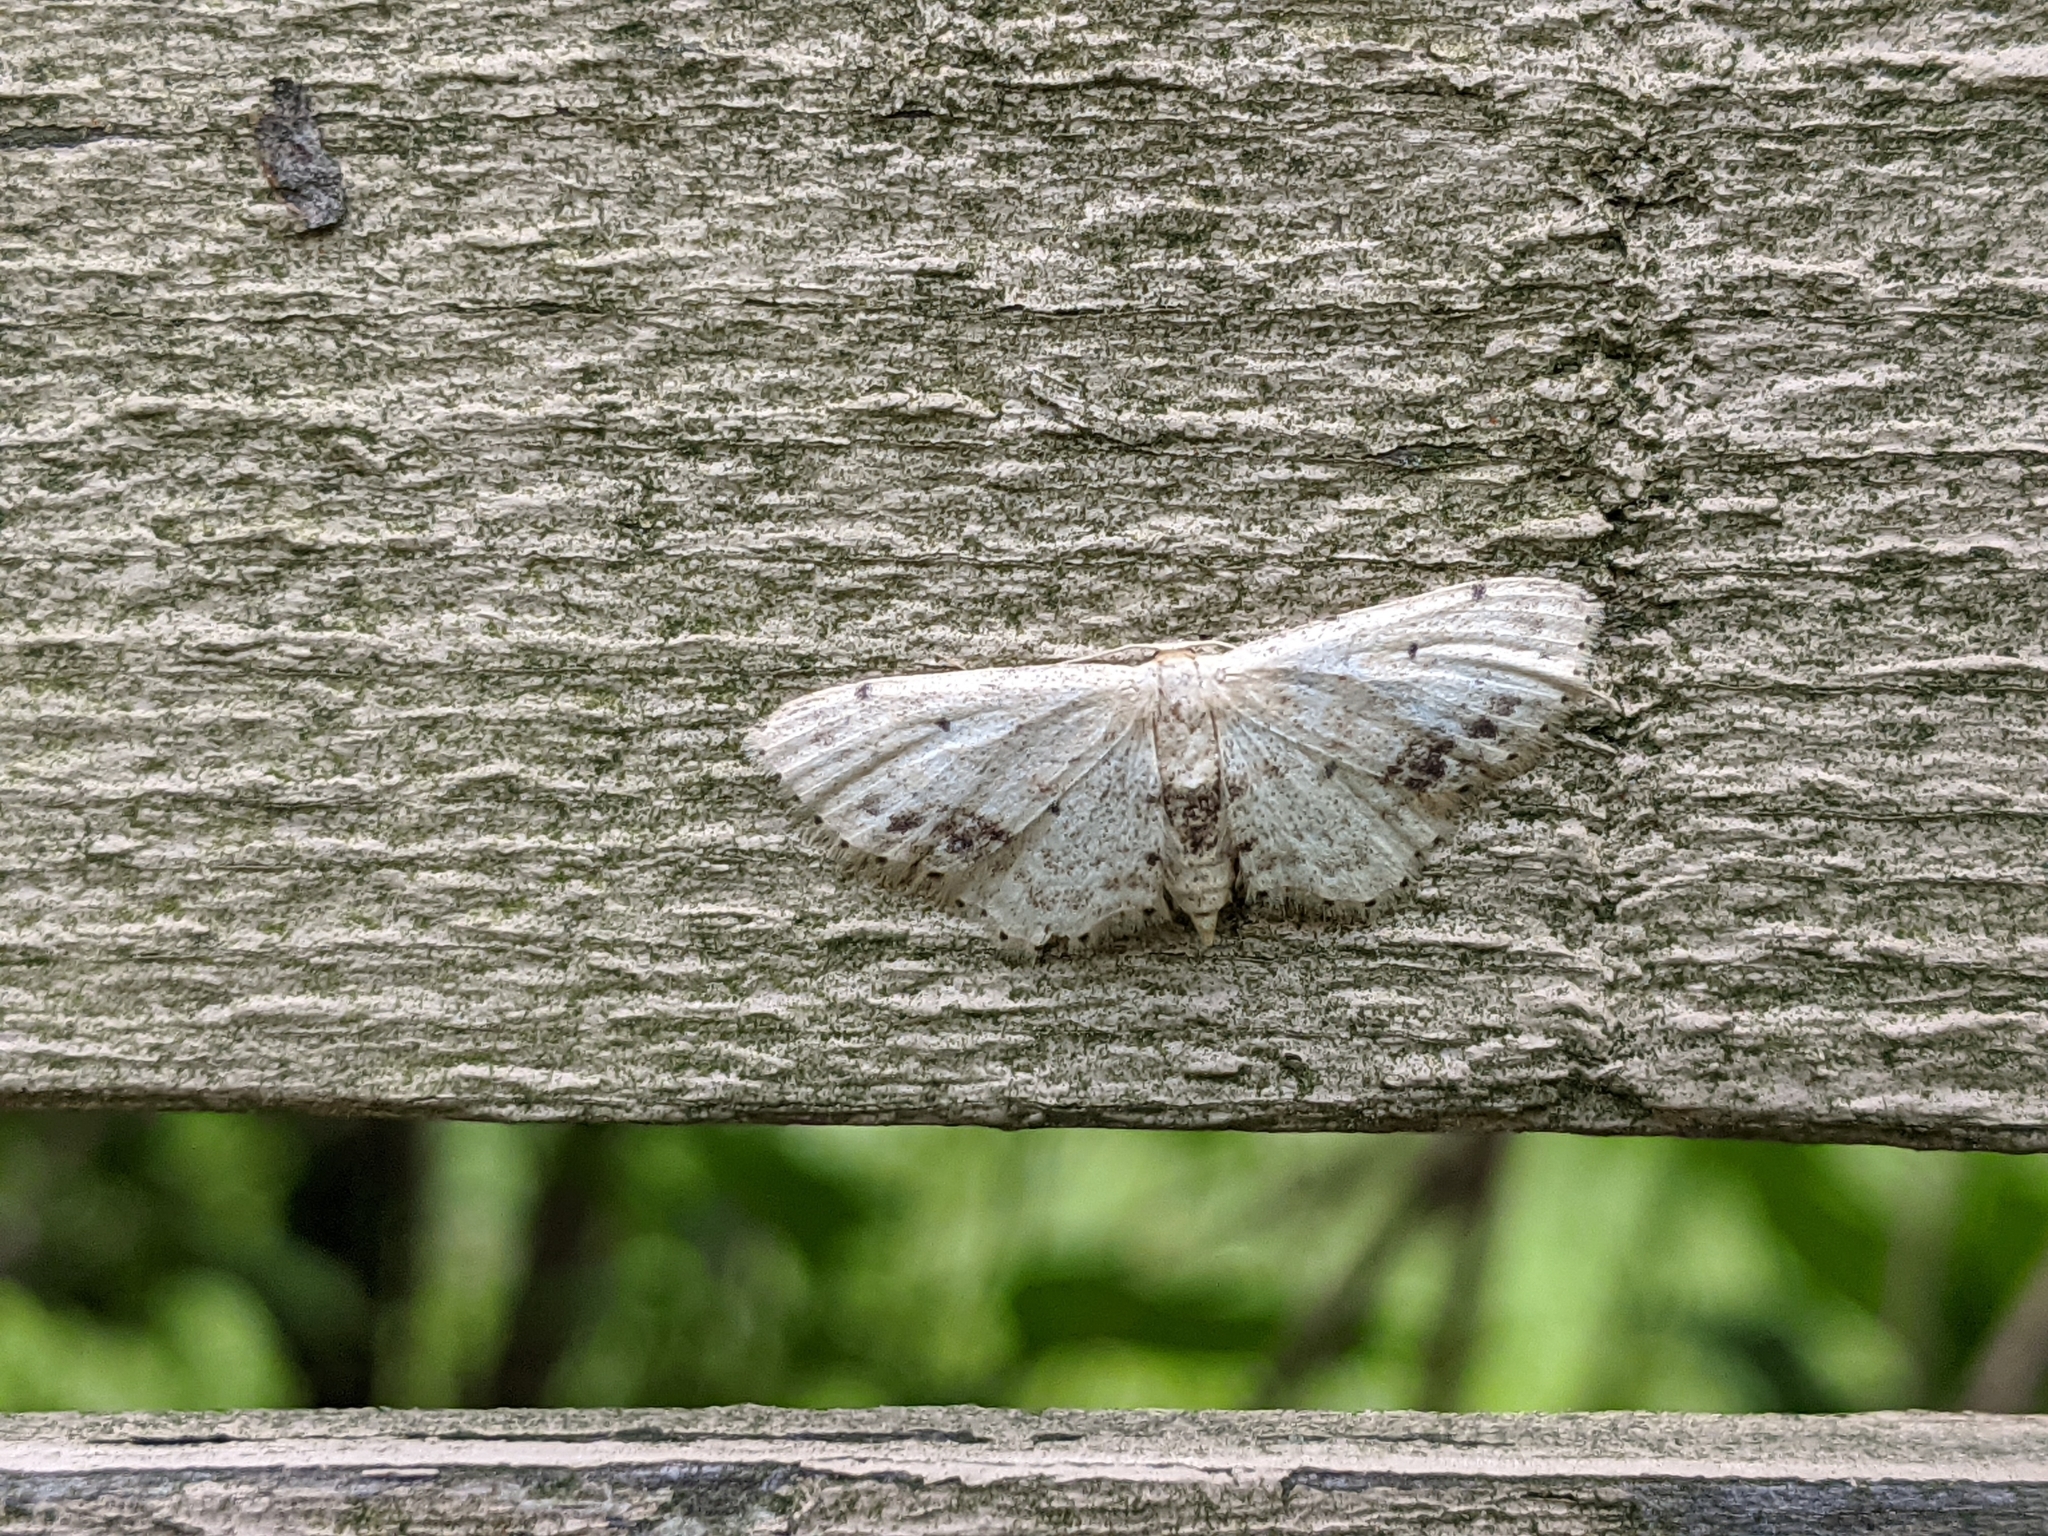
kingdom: Animalia
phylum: Arthropoda
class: Insecta
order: Lepidoptera
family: Geometridae
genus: Idaea
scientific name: Idaea dimidiata
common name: Single-dotted wave
